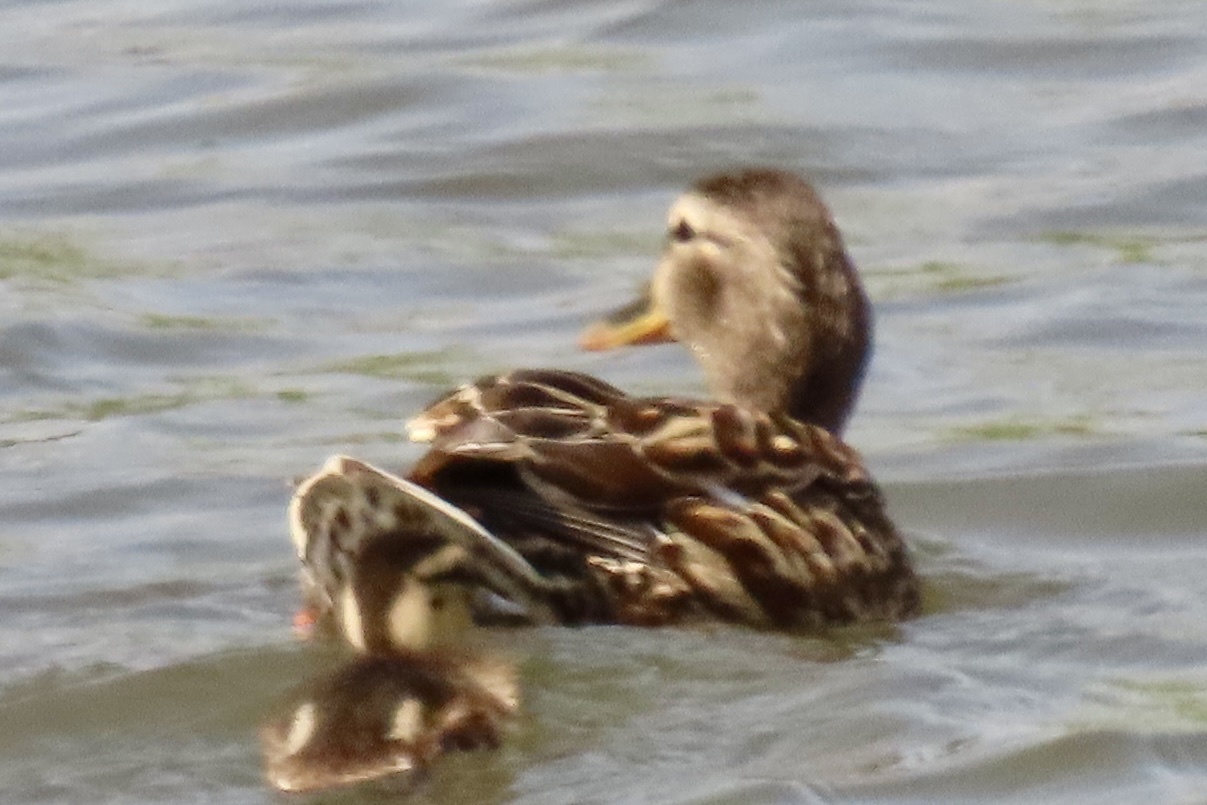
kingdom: Animalia
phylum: Chordata
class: Aves
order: Anseriformes
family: Anatidae
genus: Mareca
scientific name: Mareca strepera
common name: Gadwall
